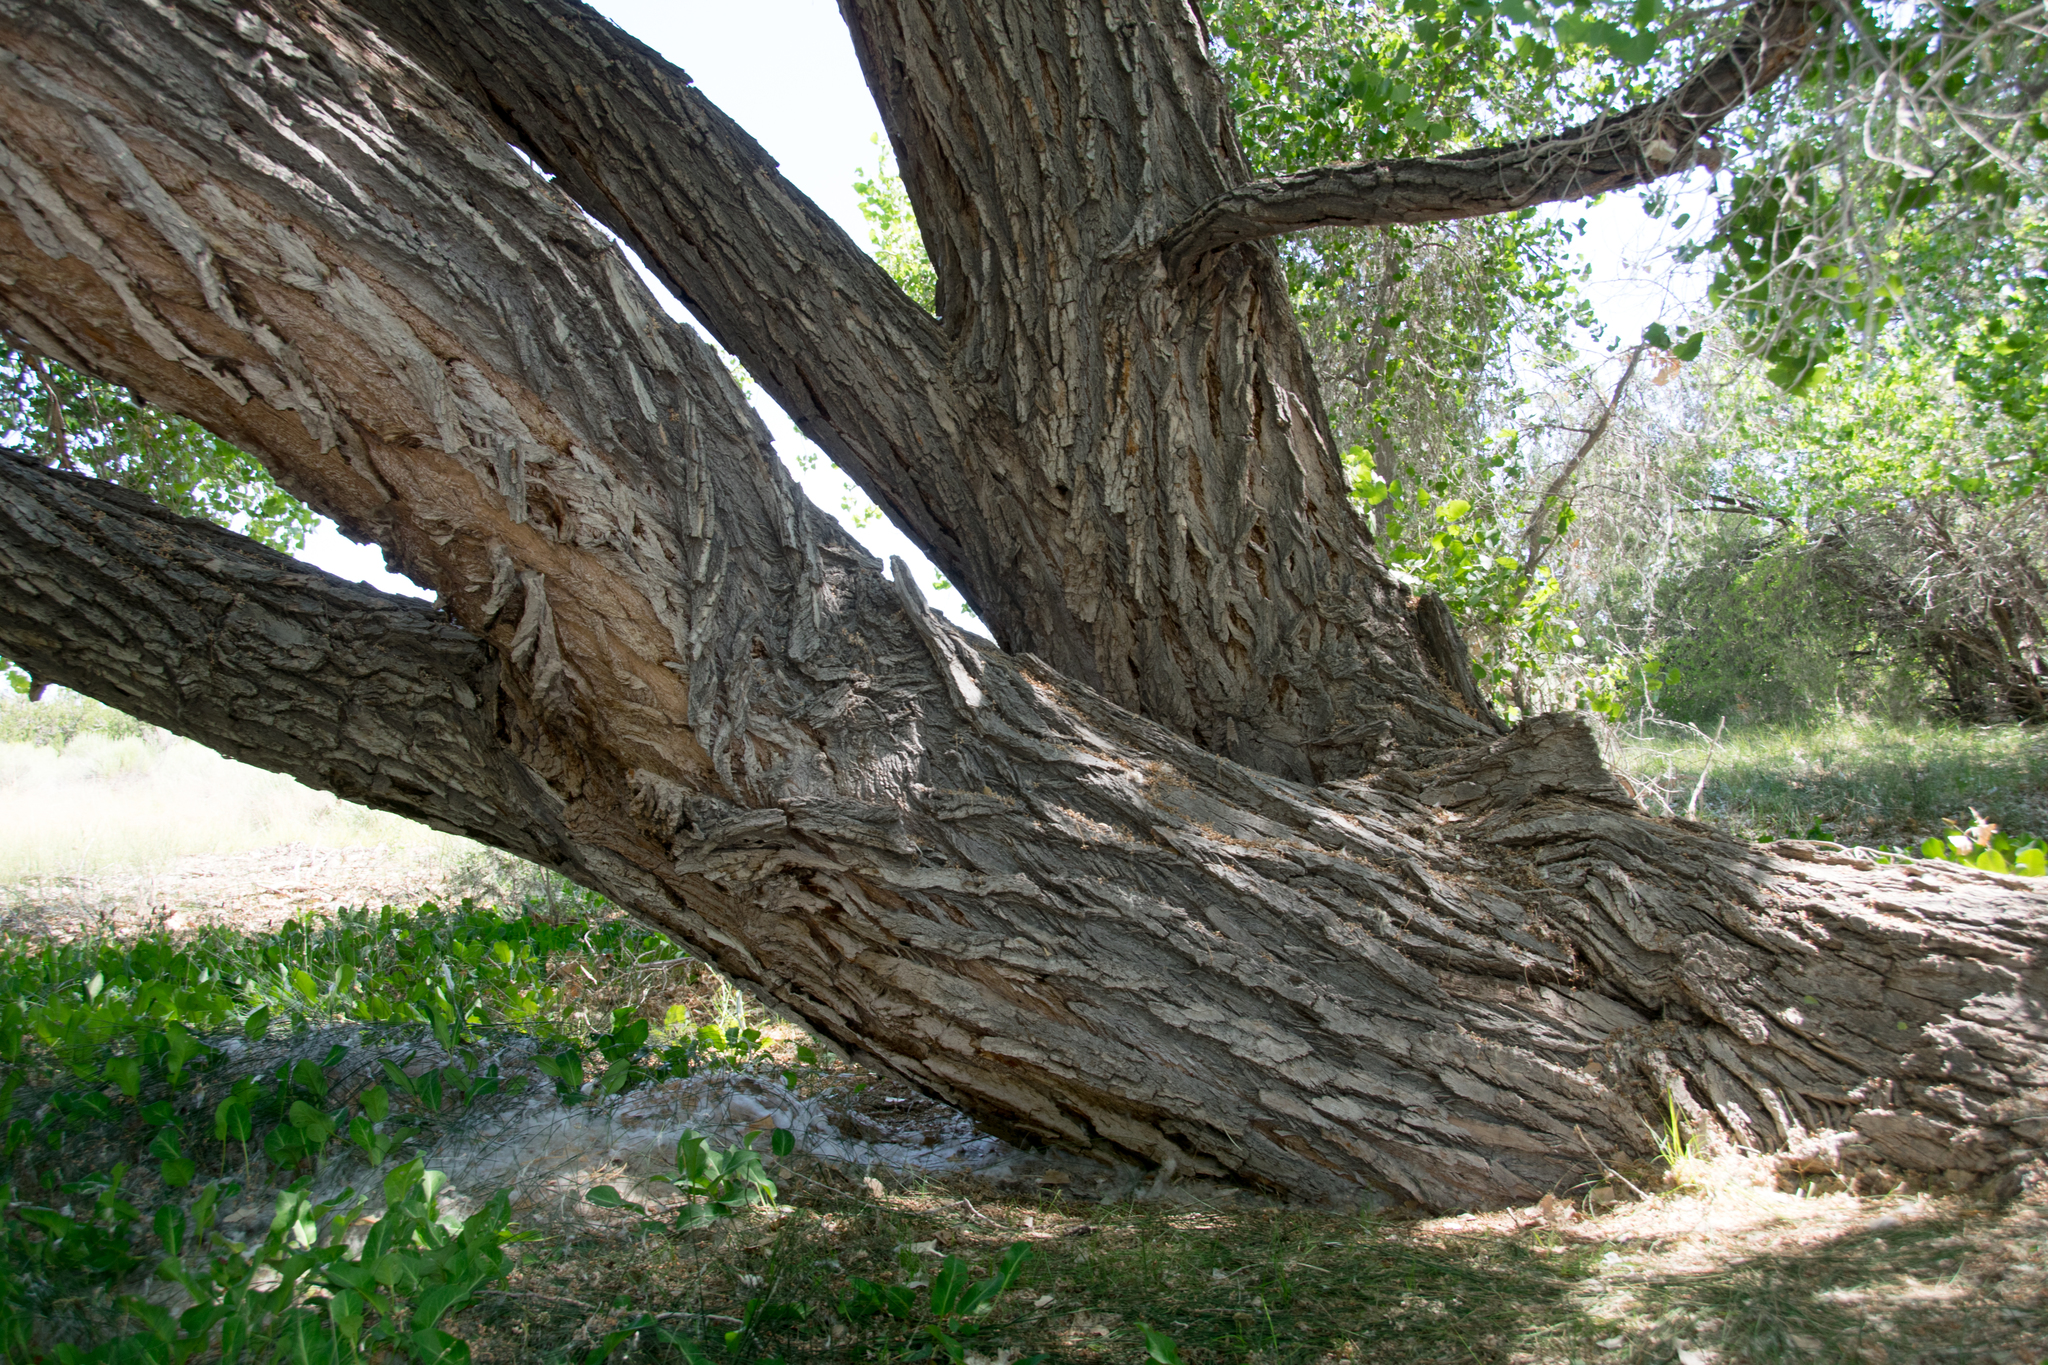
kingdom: Plantae
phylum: Tracheophyta
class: Magnoliopsida
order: Malpighiales
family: Salicaceae
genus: Populus
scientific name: Populus deltoides
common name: Eastern cottonwood
